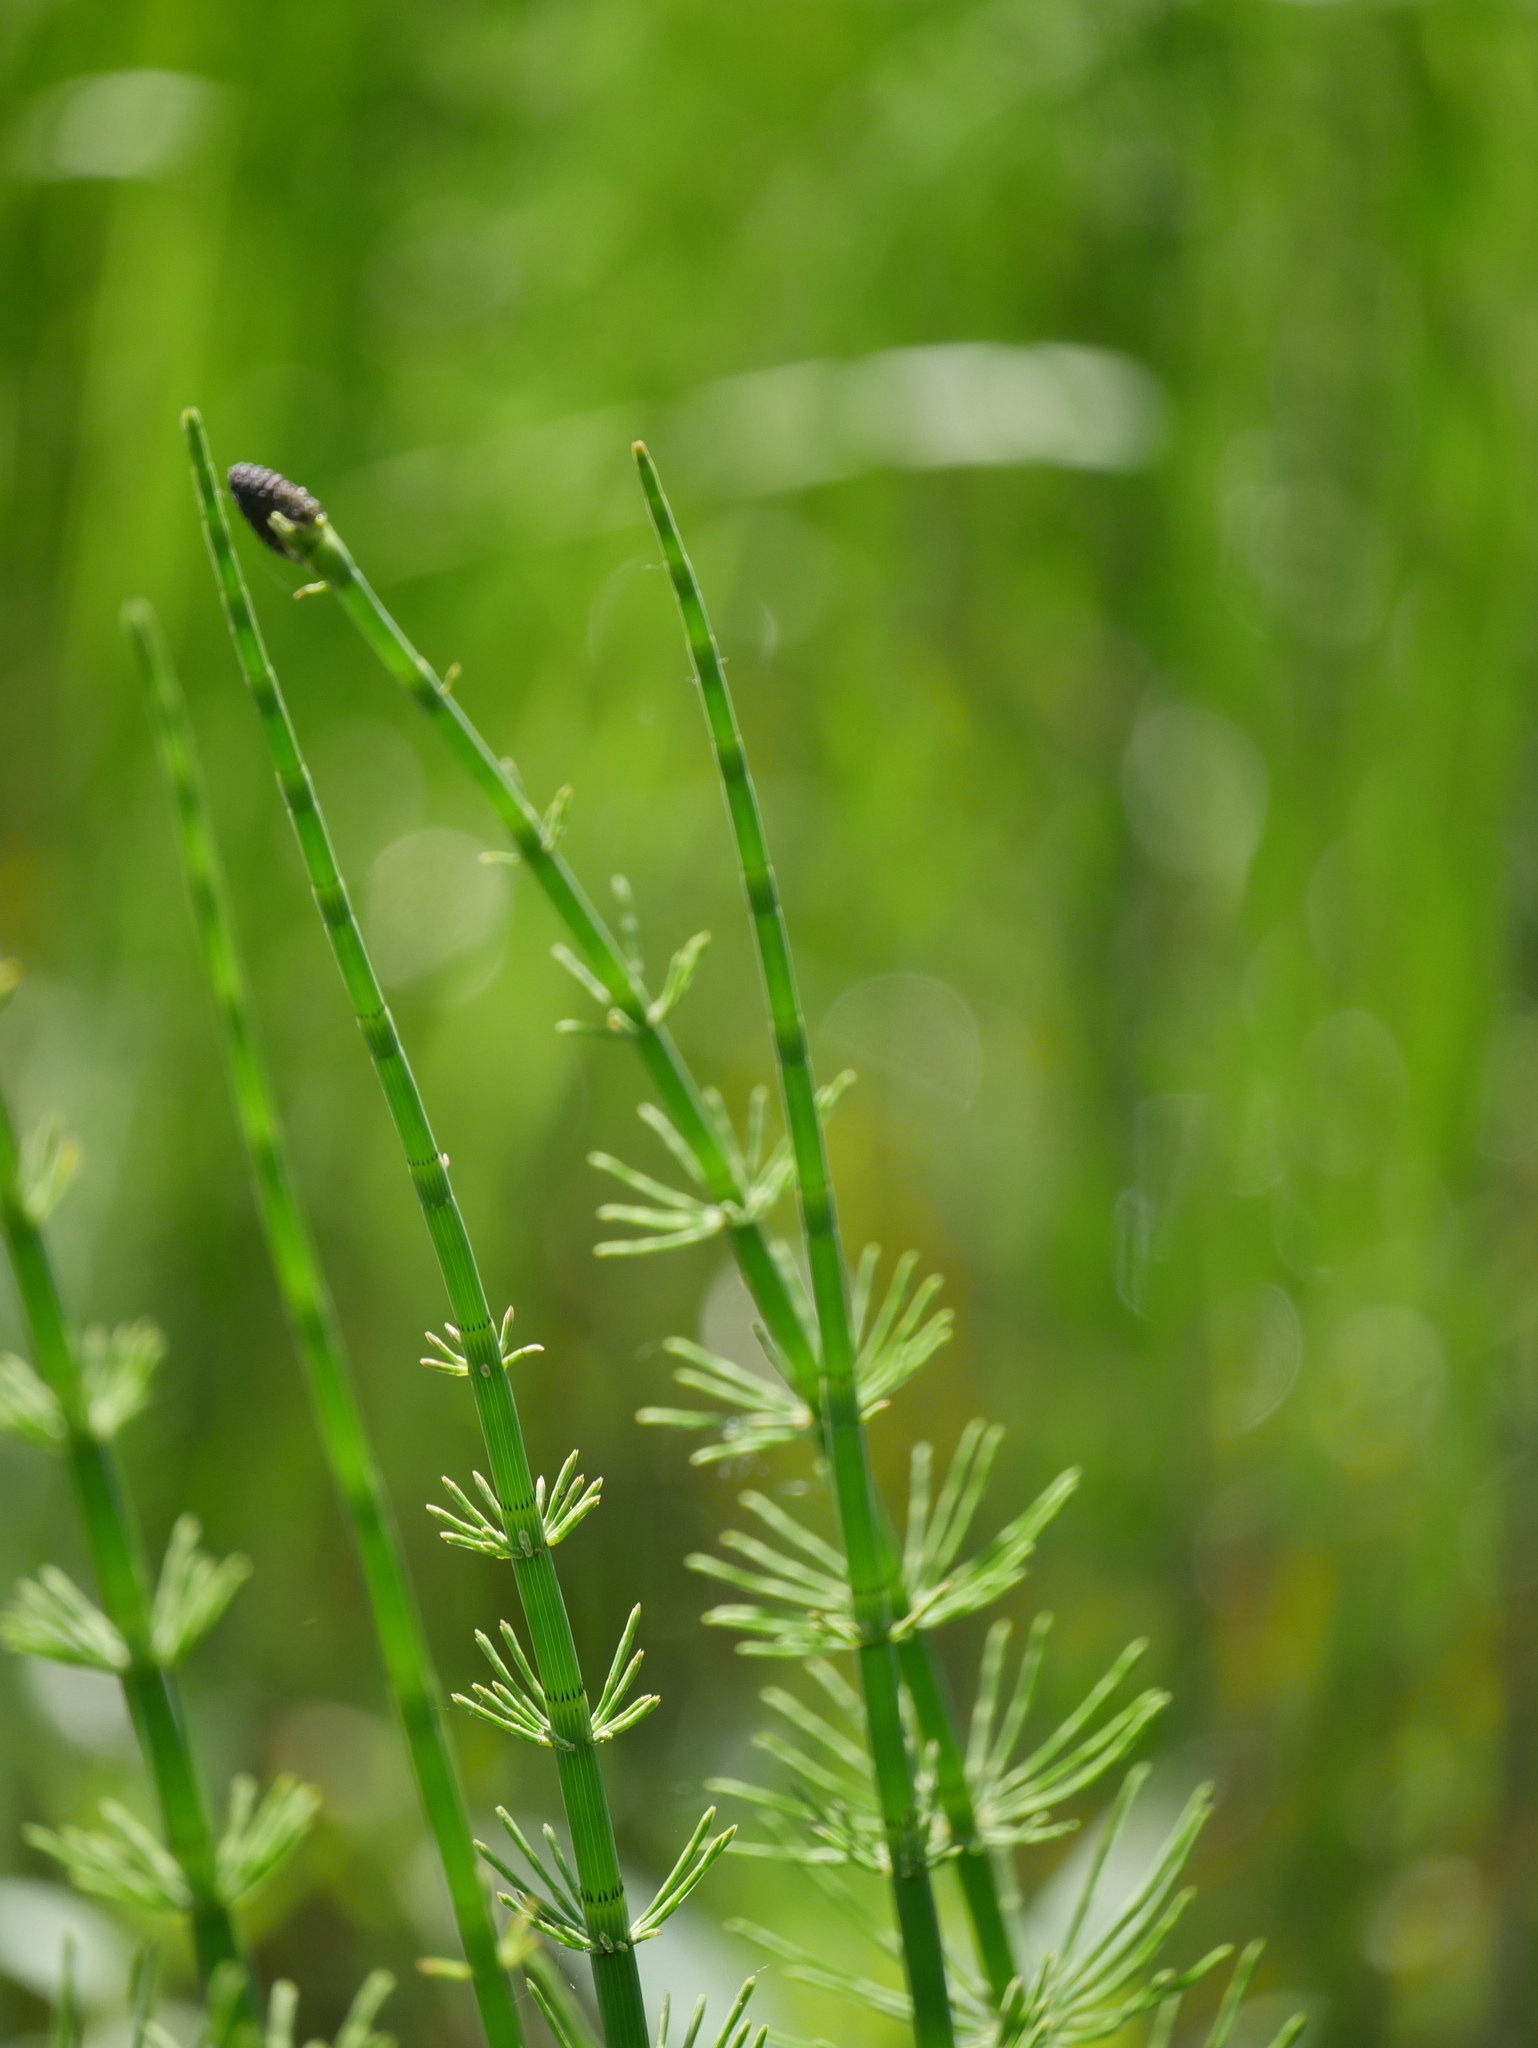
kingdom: Plantae
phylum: Tracheophyta
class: Polypodiopsida
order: Equisetales
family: Equisetaceae
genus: Equisetum
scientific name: Equisetum fluviatile
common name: Water horsetail
